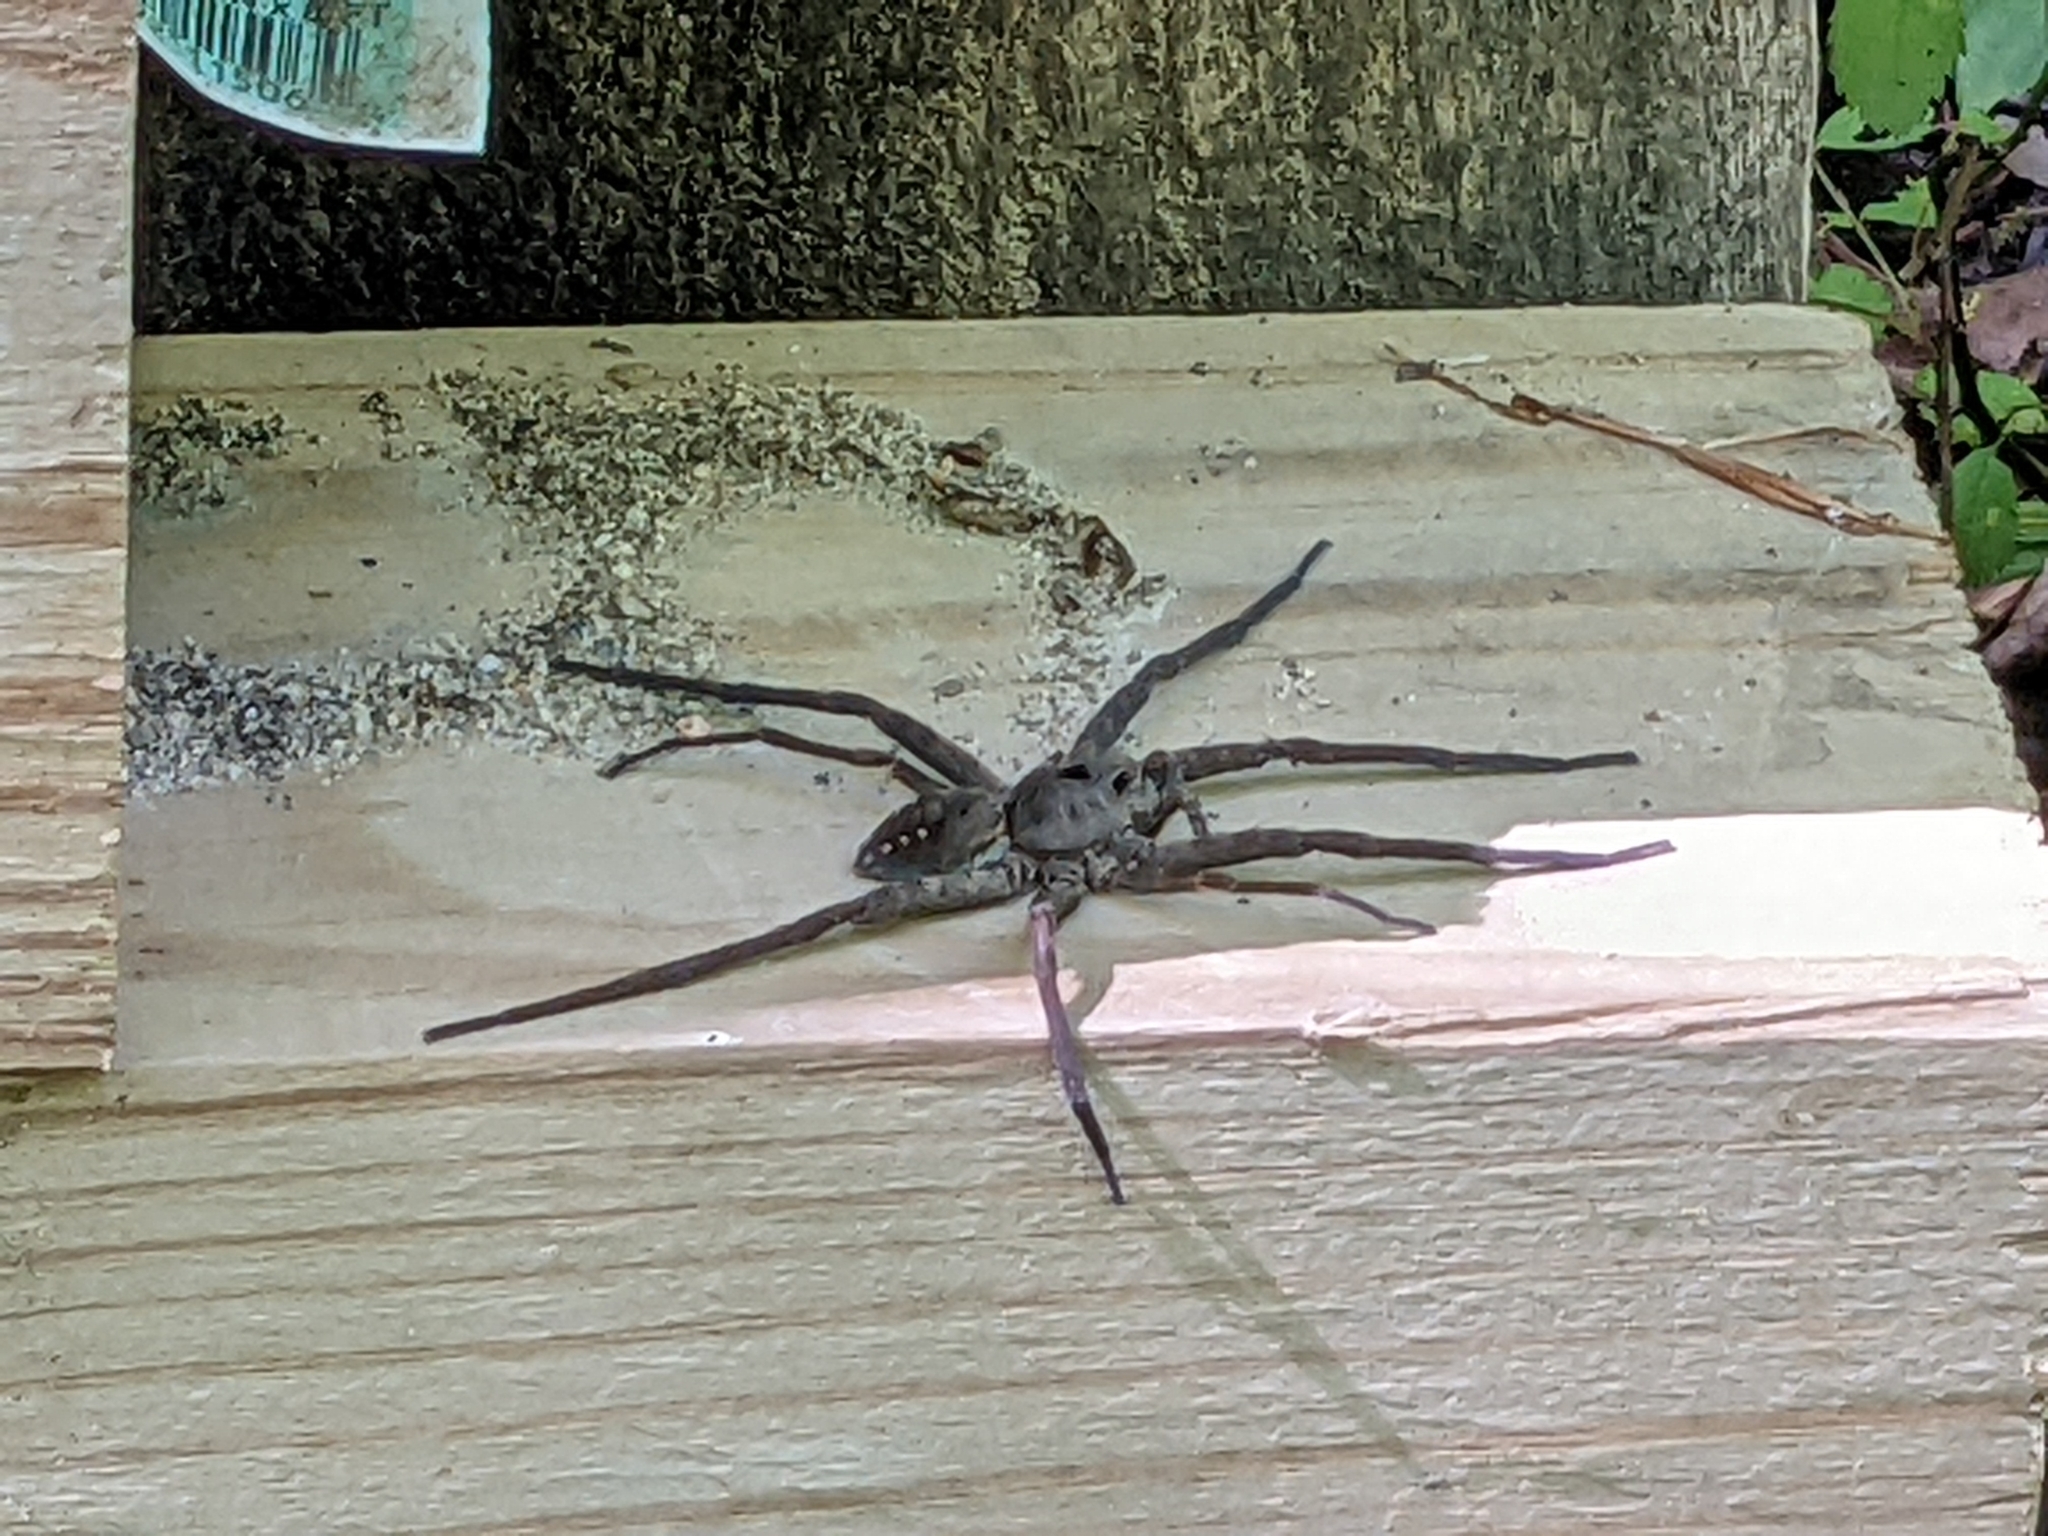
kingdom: Animalia
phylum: Arthropoda
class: Arachnida
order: Araneae
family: Pisauridae
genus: Dolomedes
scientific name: Dolomedes vittatus
